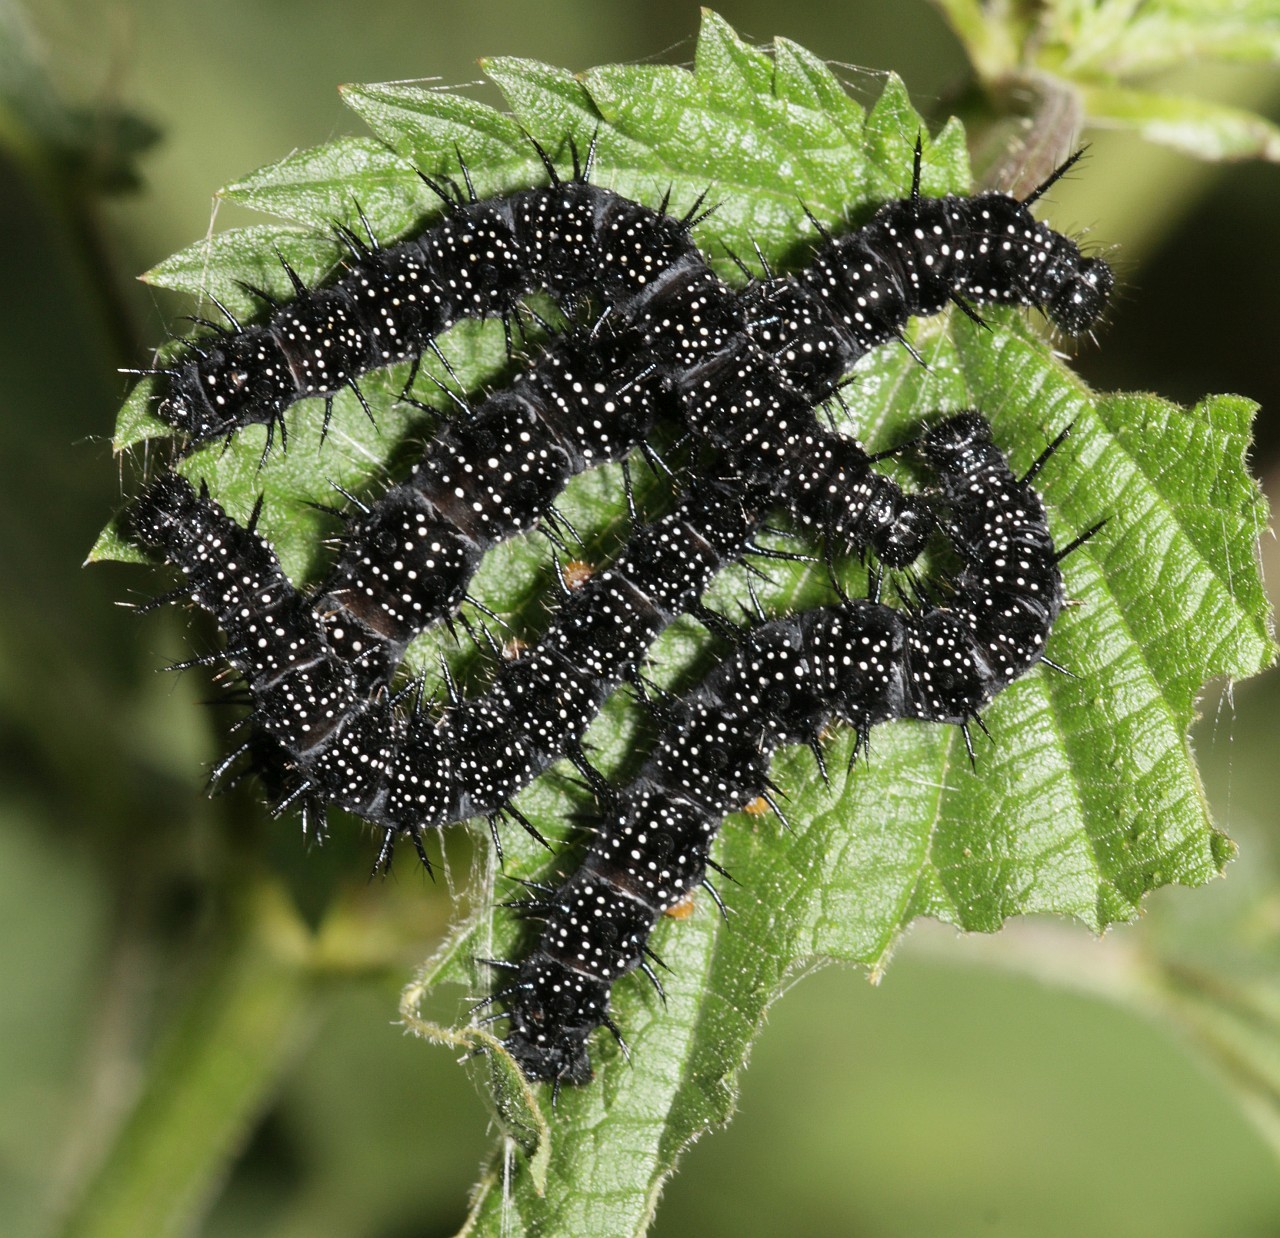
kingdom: Animalia
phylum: Arthropoda
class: Insecta
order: Lepidoptera
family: Nymphalidae
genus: Aglais
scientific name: Aglais io
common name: Peacock
